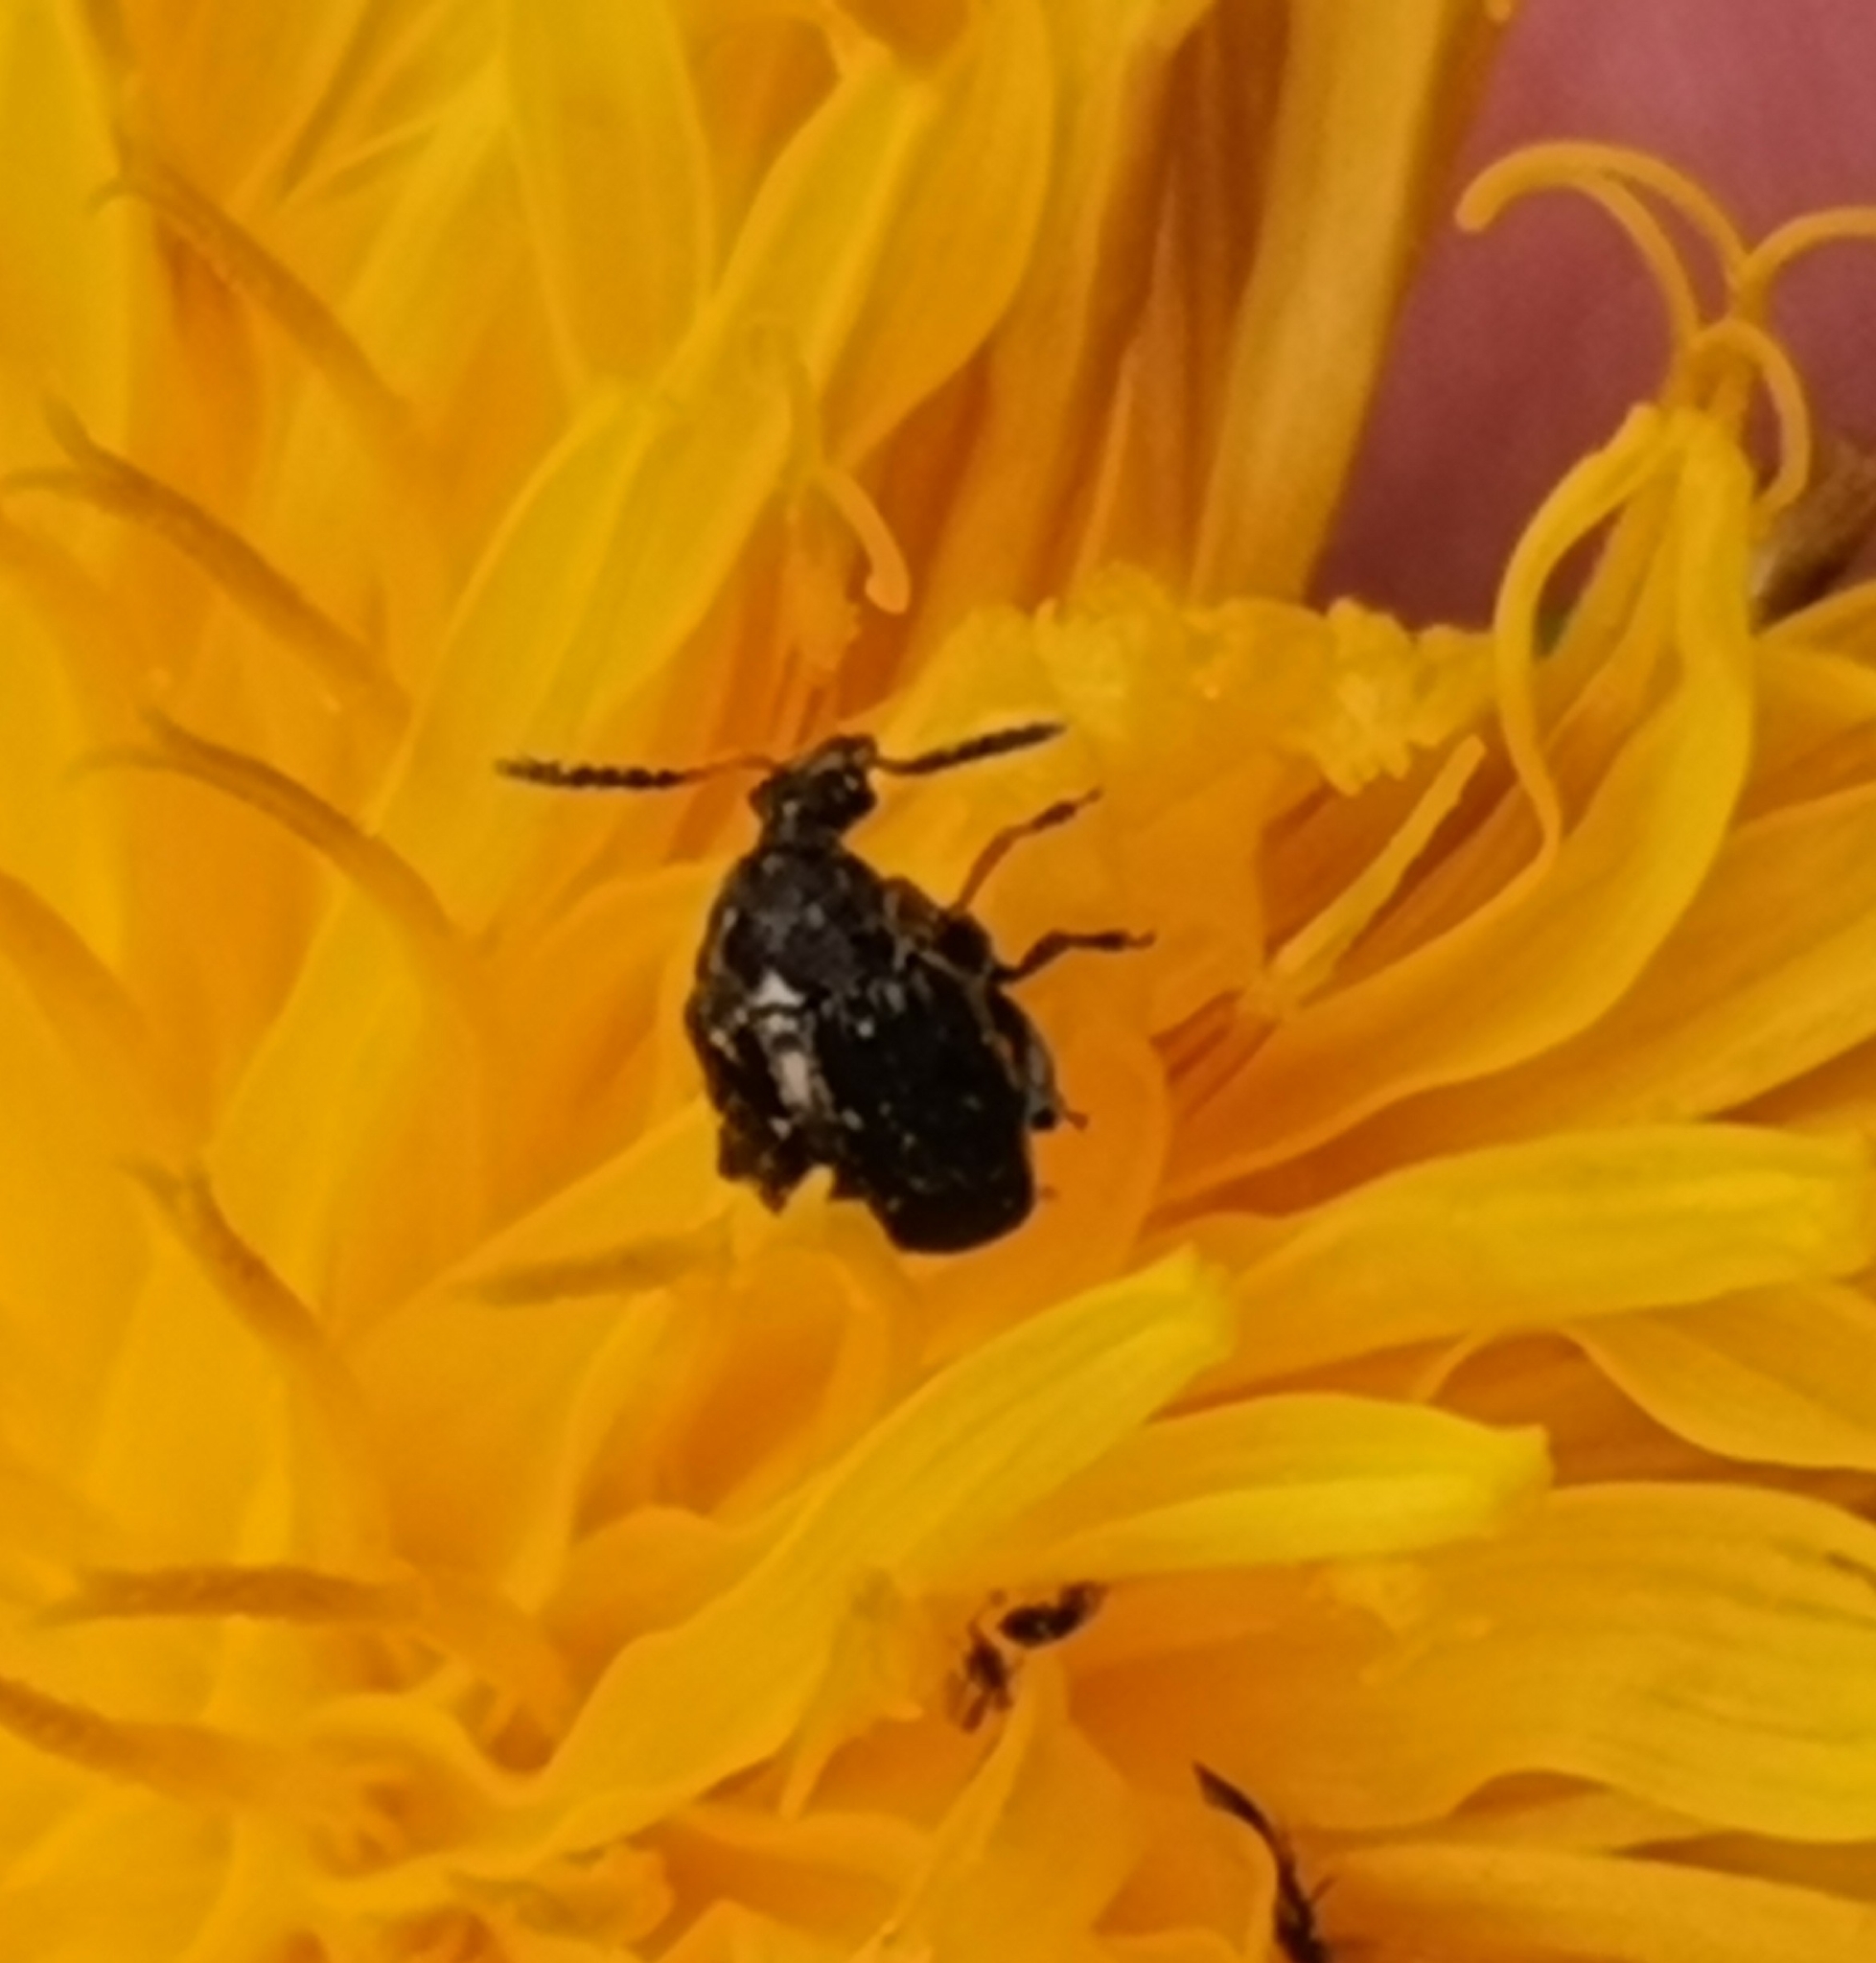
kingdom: Animalia
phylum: Arthropoda
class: Insecta
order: Coleoptera
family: Chrysomelidae
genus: Bruchus
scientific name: Bruchus atomarius
